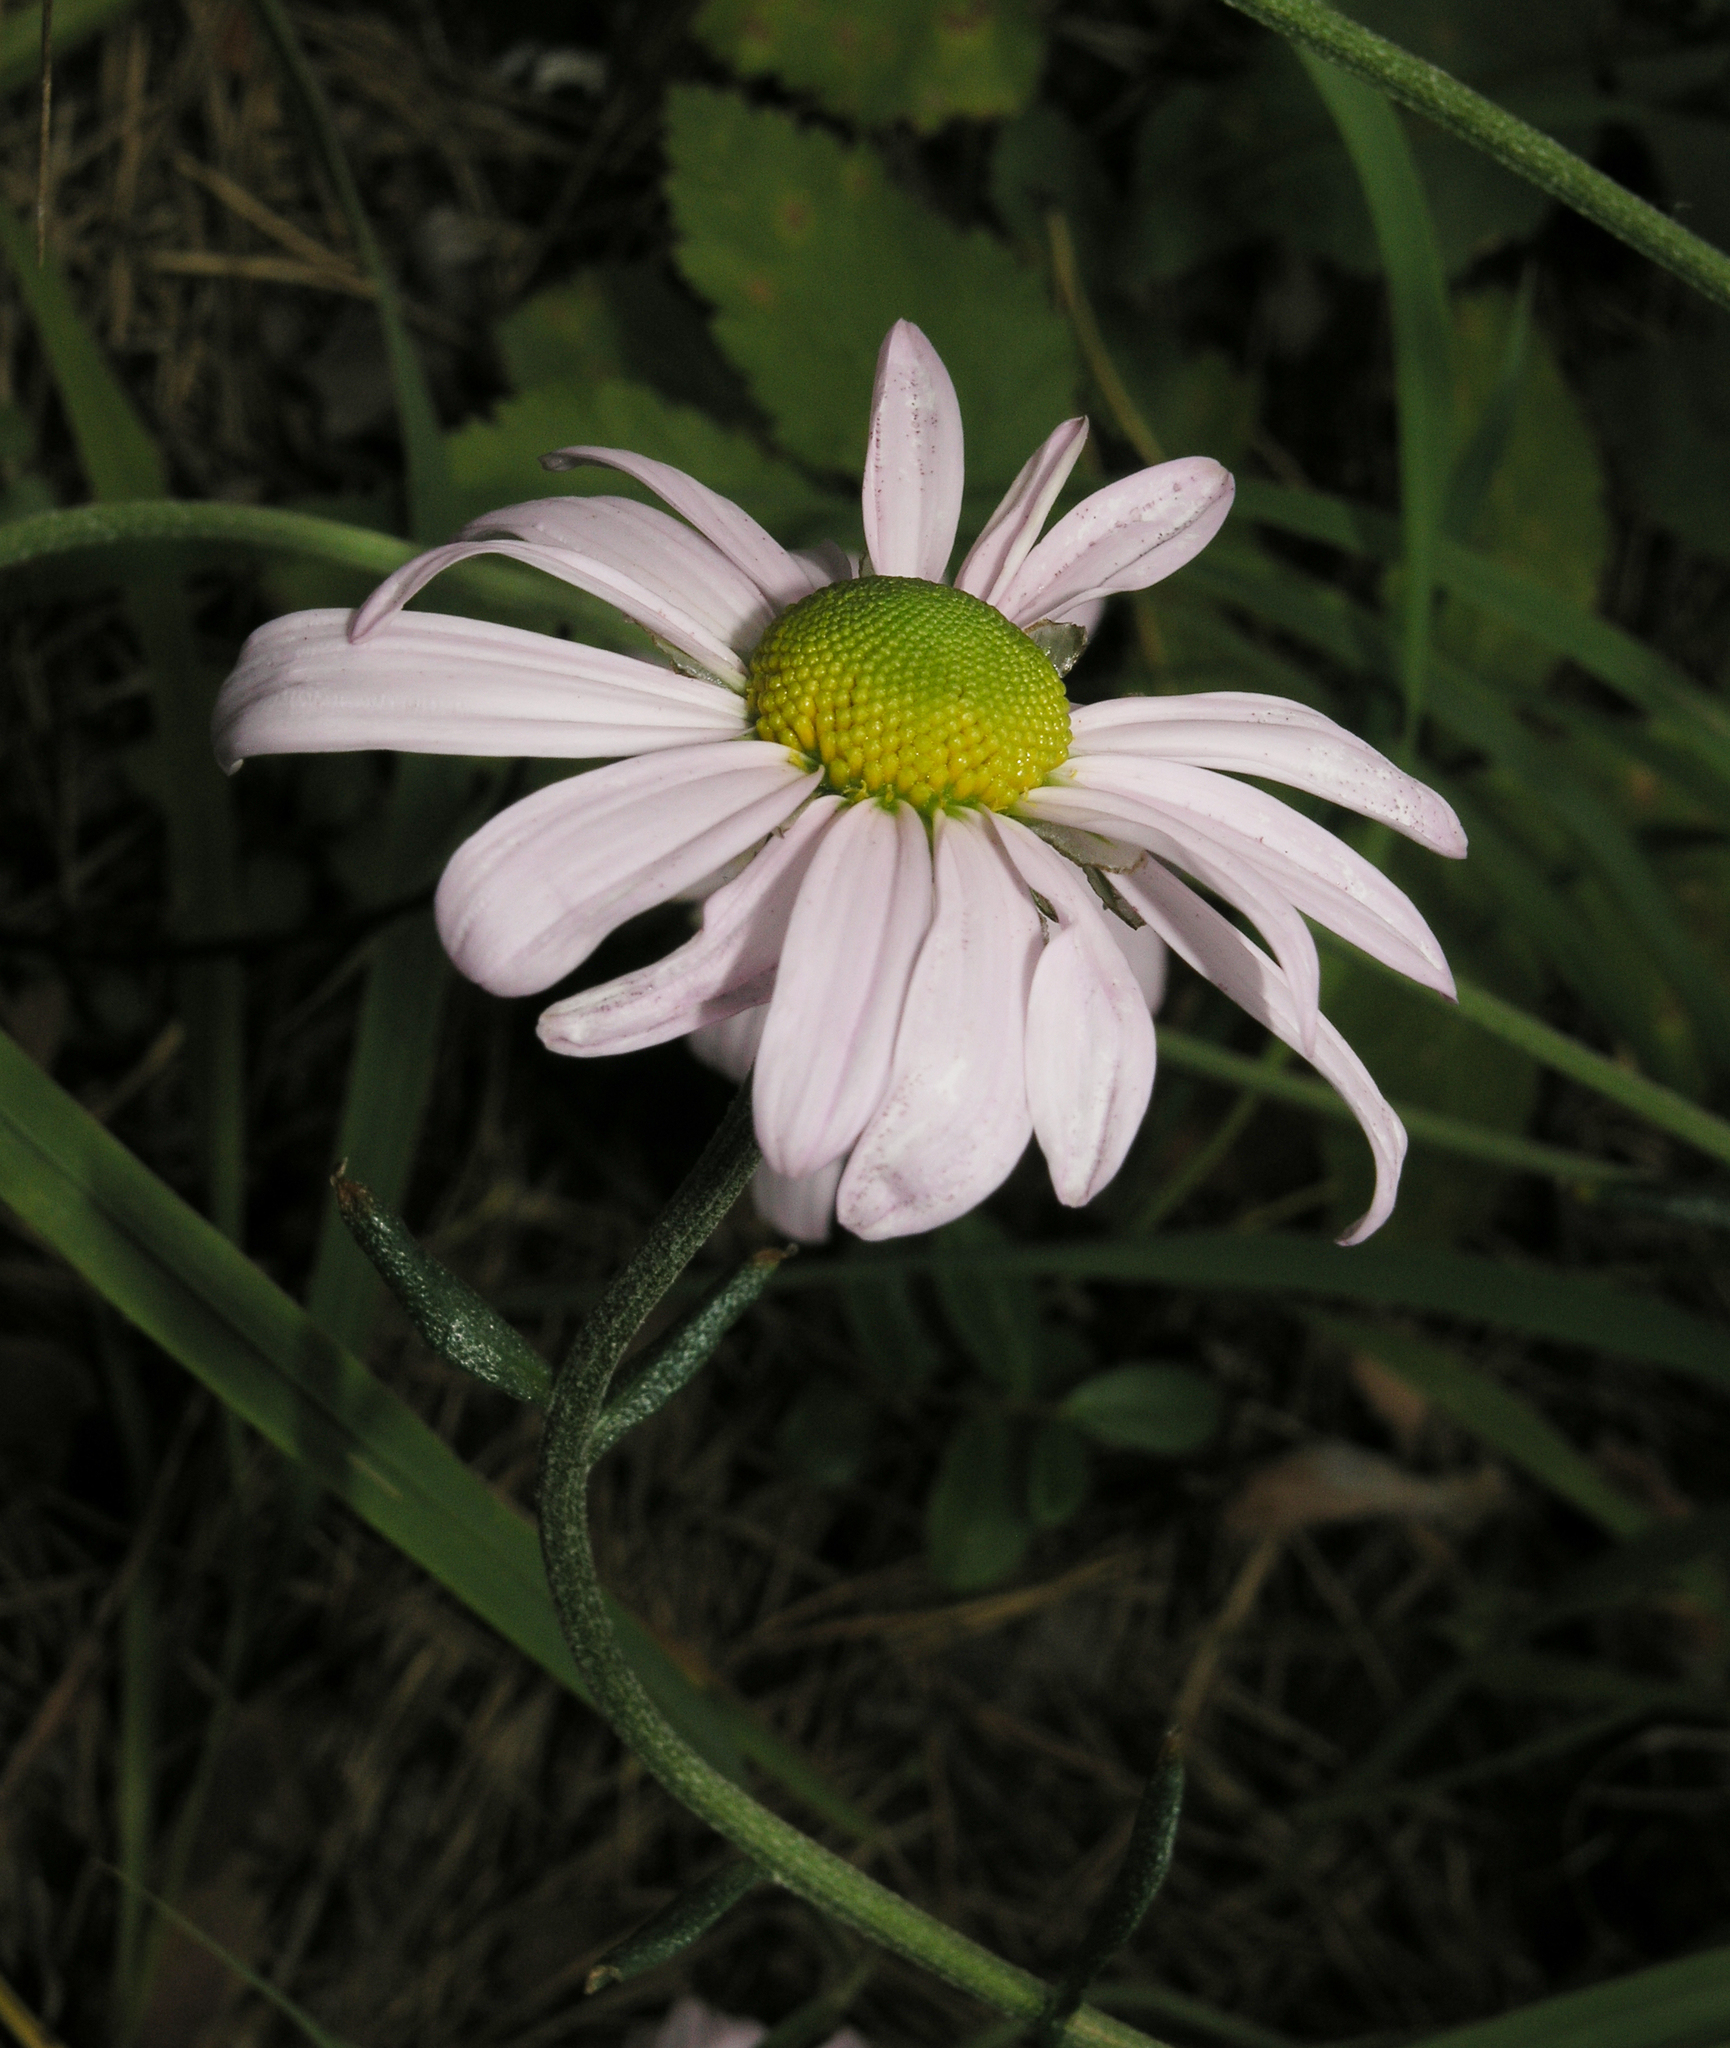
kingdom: Plantae
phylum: Tracheophyta
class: Magnoliopsida
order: Asterales
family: Asteraceae
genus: Chrysanthemum
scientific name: Chrysanthemum zawadzkii
